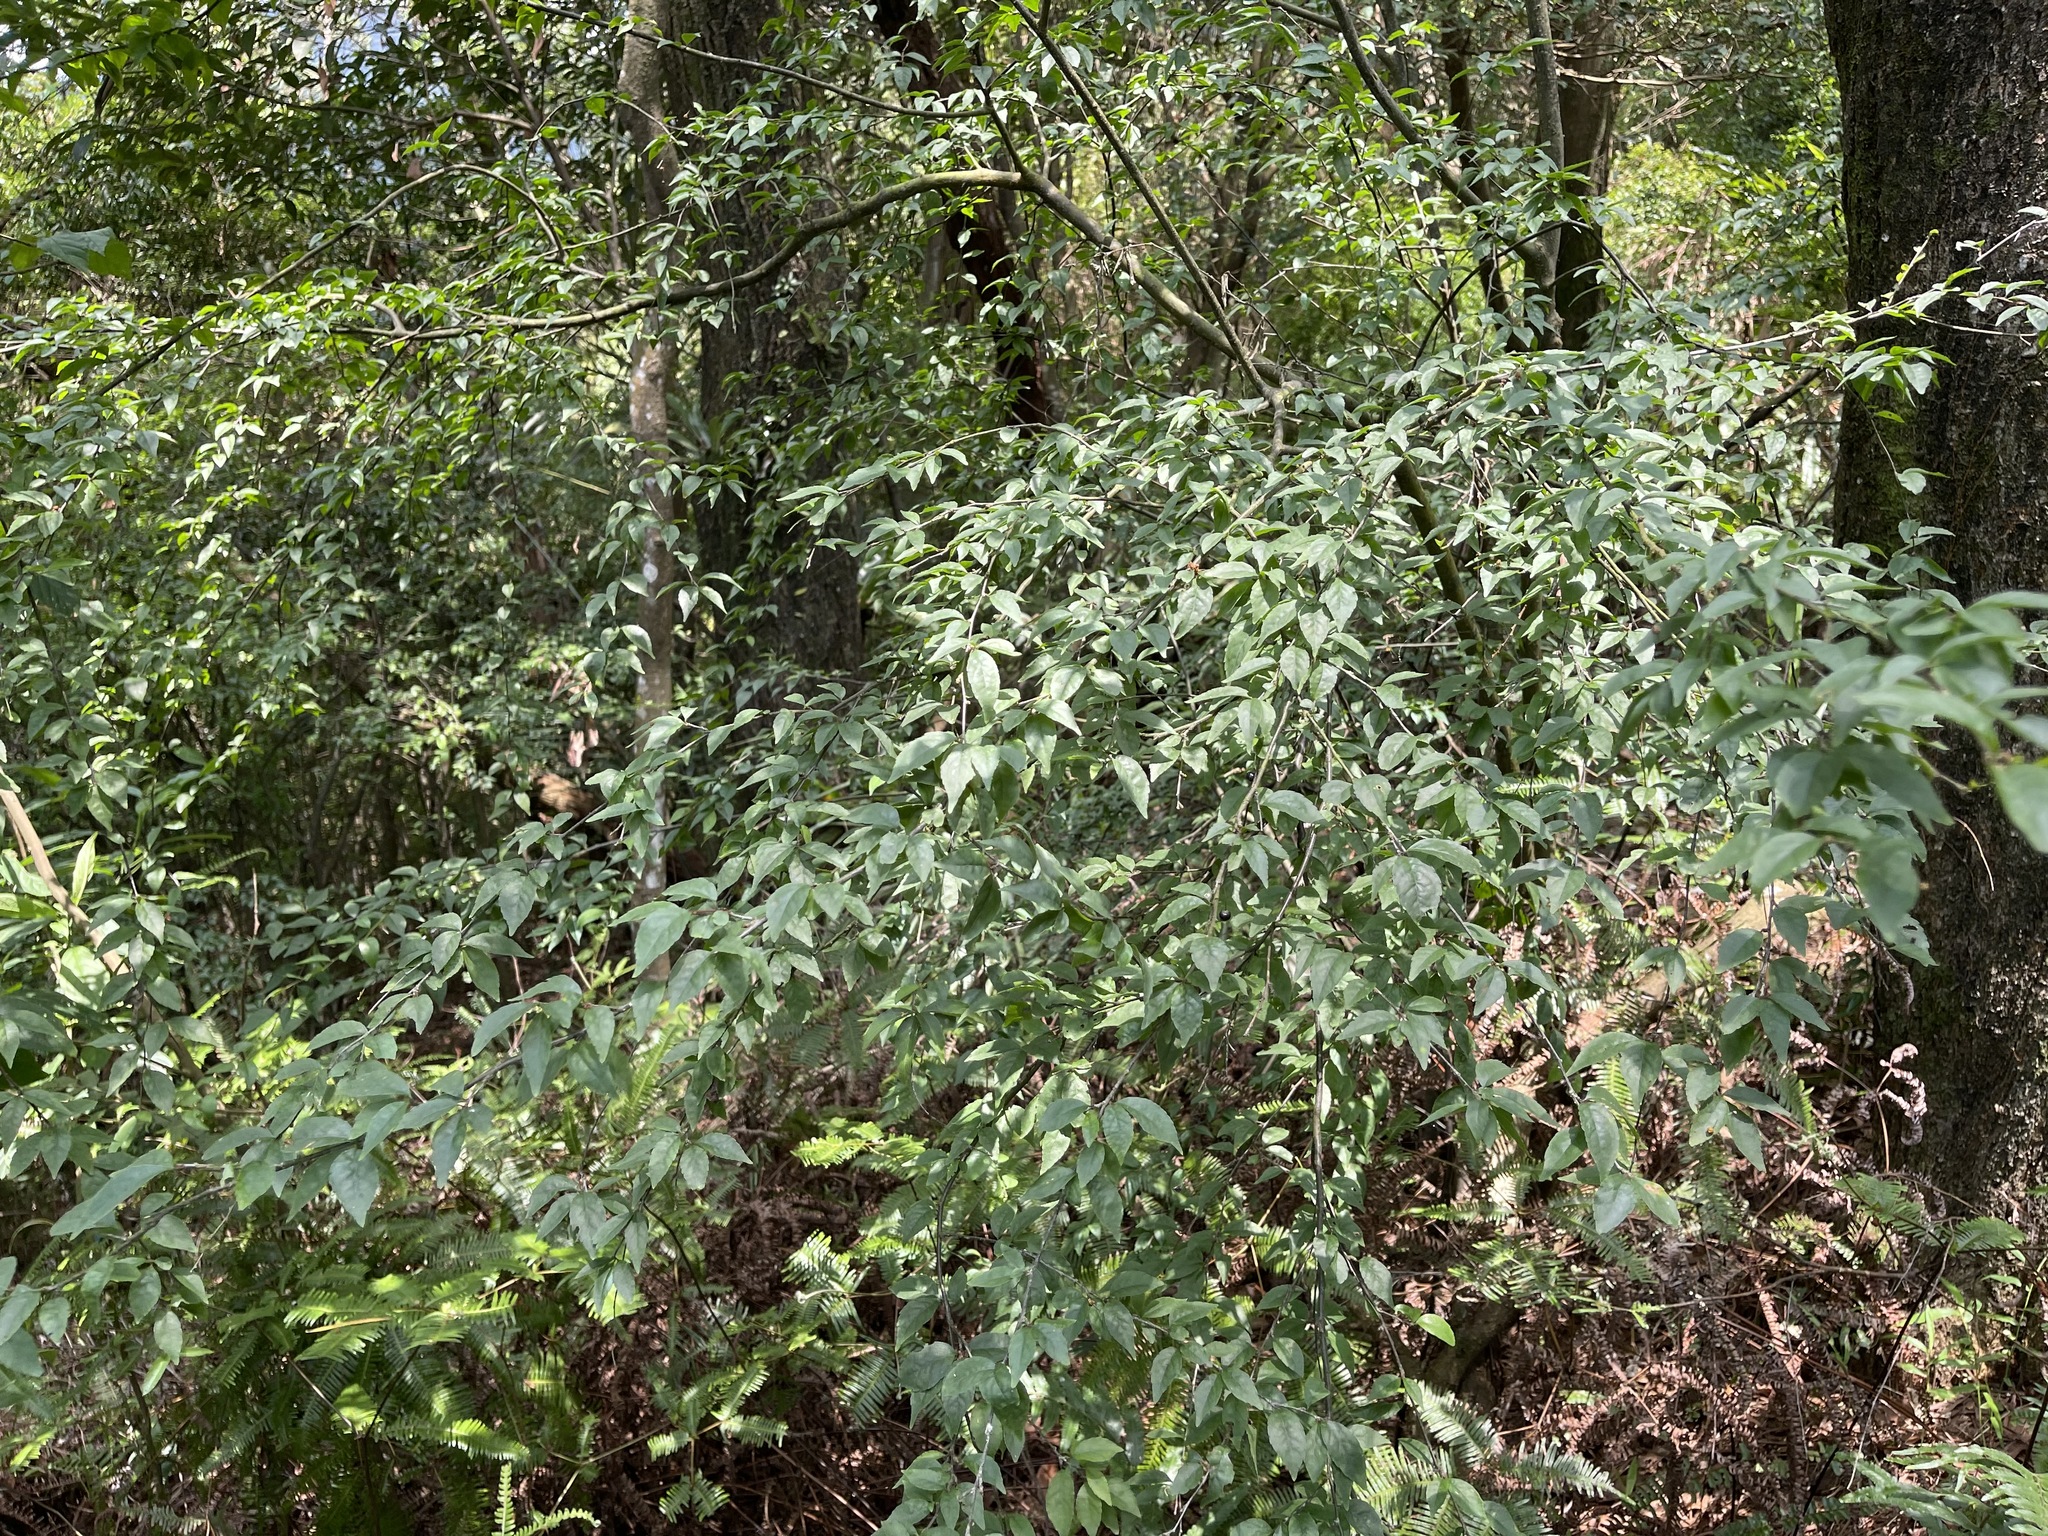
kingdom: Plantae
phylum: Tracheophyta
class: Magnoliopsida
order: Aquifoliales
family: Aquifoliaceae
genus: Ilex
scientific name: Ilex asprella
